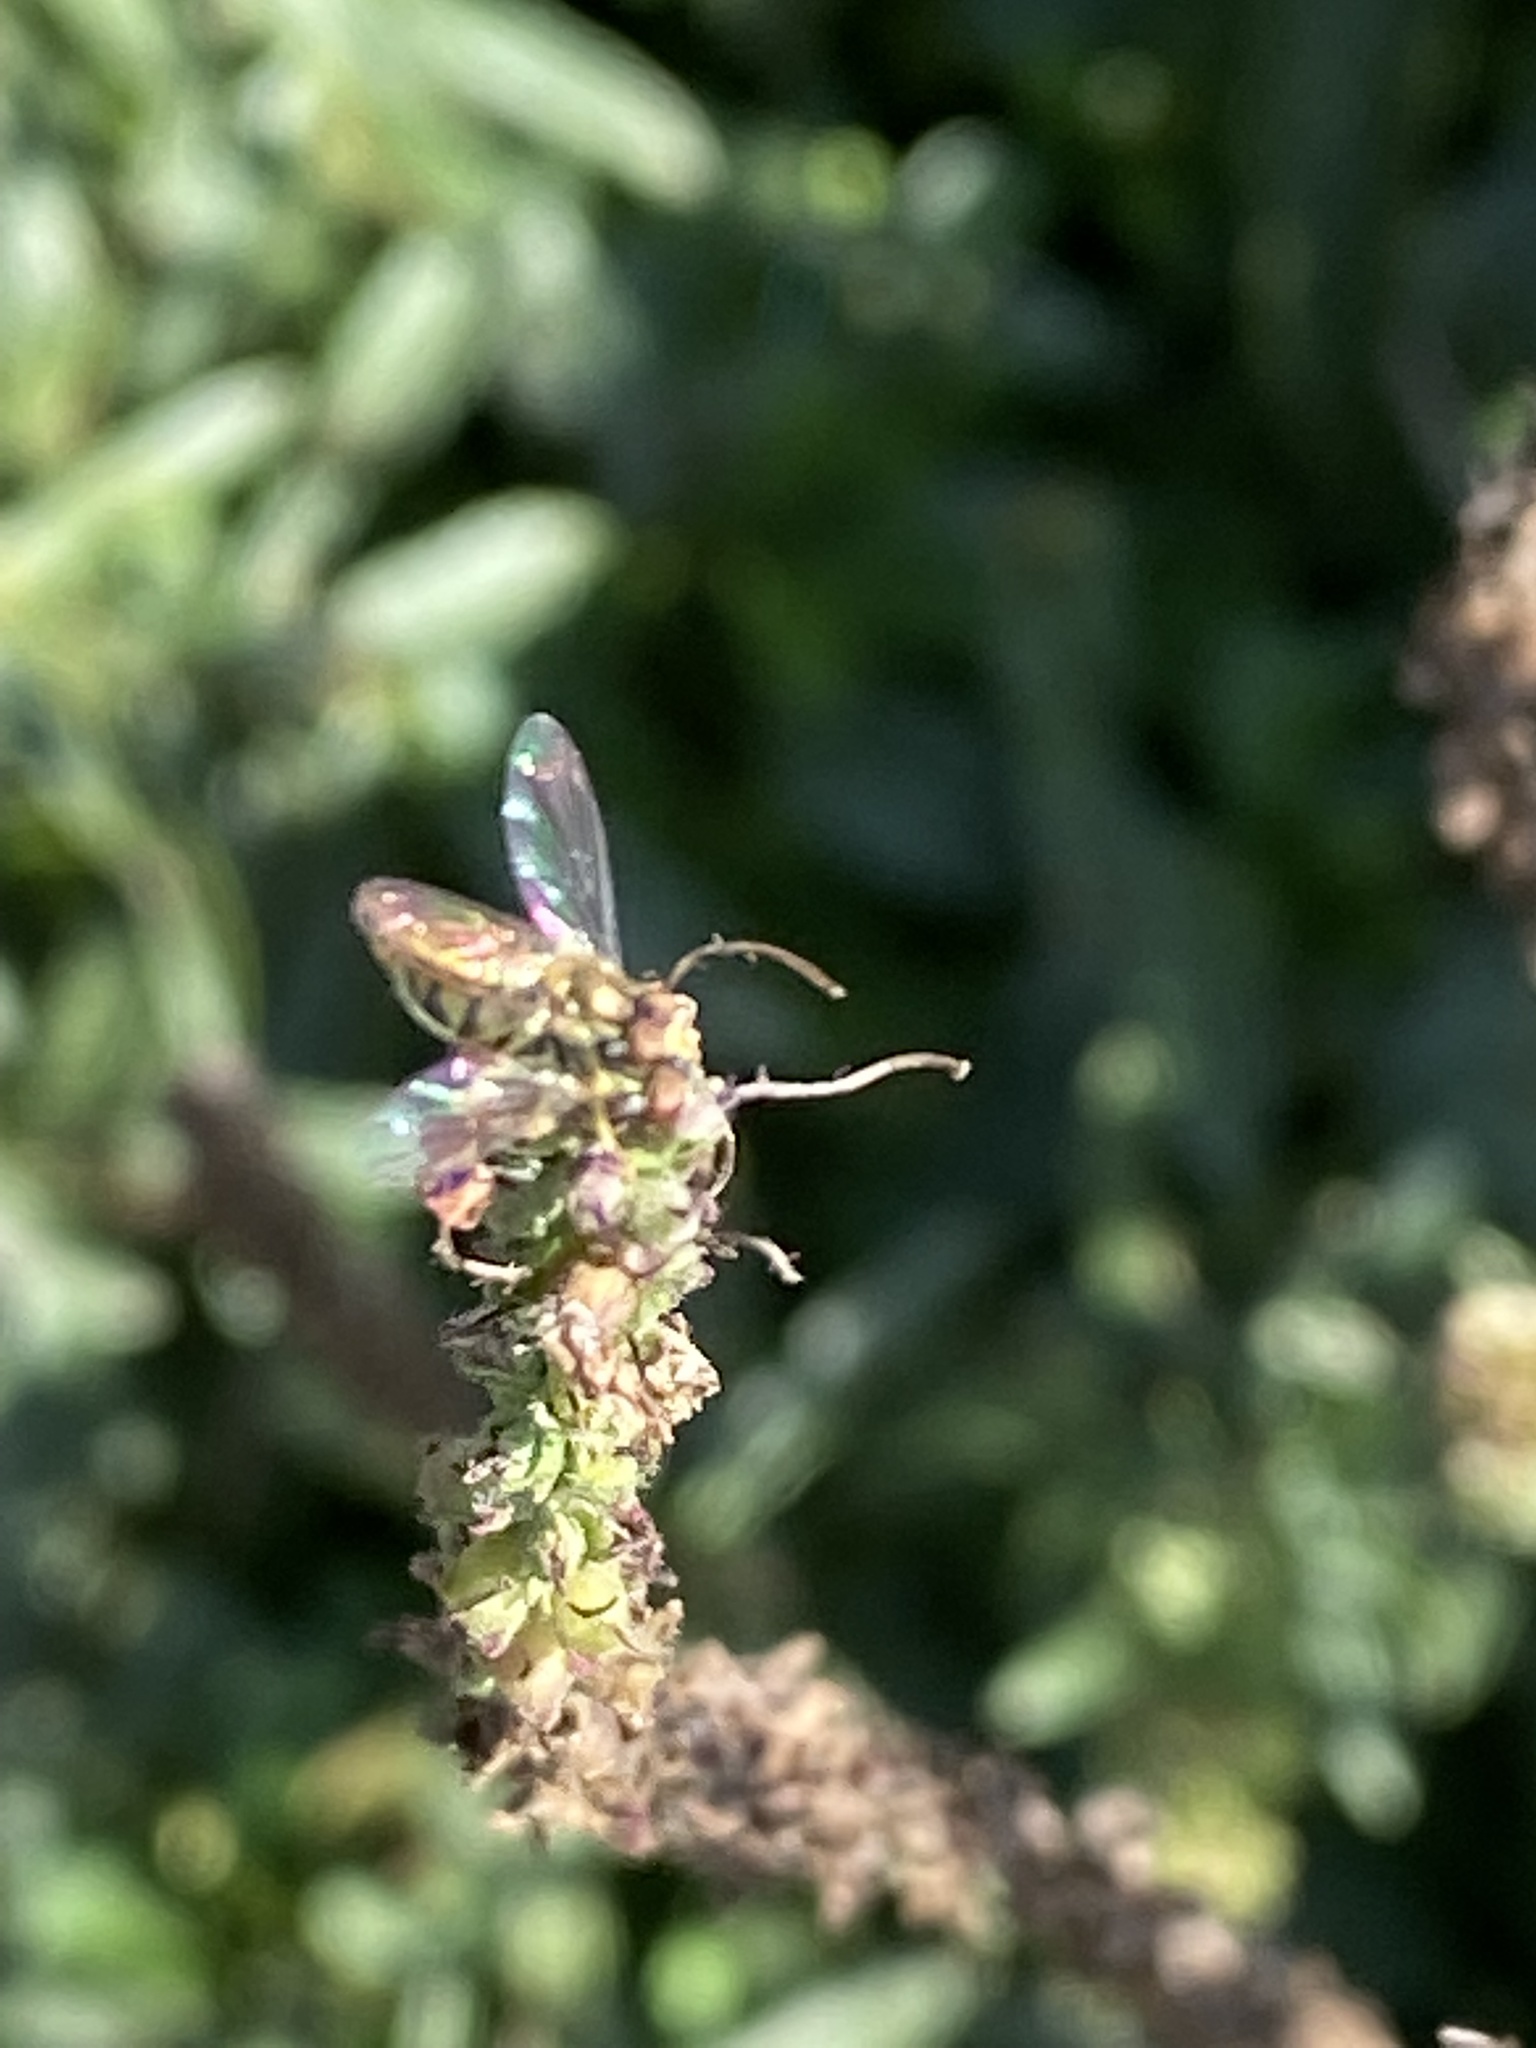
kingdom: Animalia
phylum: Arthropoda
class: Insecta
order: Diptera
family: Syrphidae
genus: Toxomerus
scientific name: Toxomerus marginatus
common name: Syrphid fly
